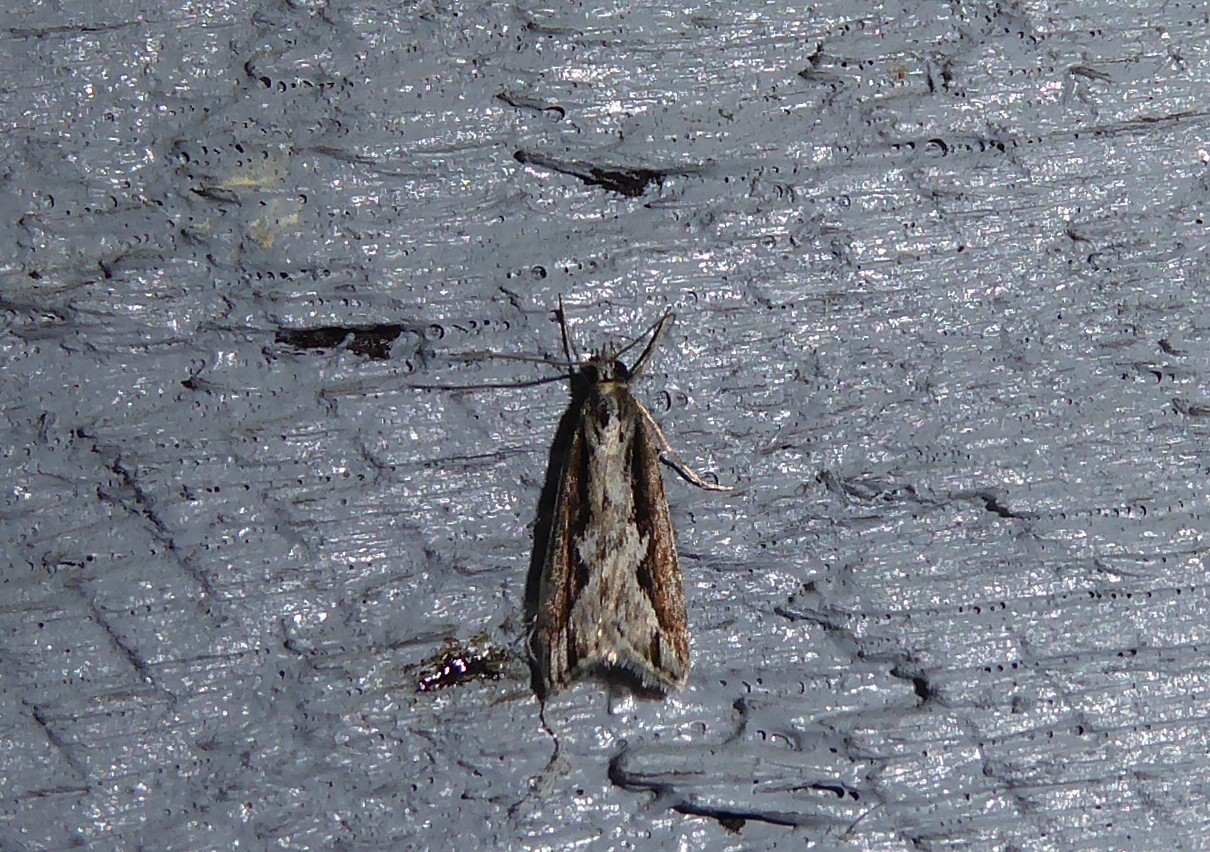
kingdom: Animalia
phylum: Arthropoda
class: Insecta
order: Lepidoptera
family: Crambidae
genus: Eudonia
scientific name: Eudonia steropaea
